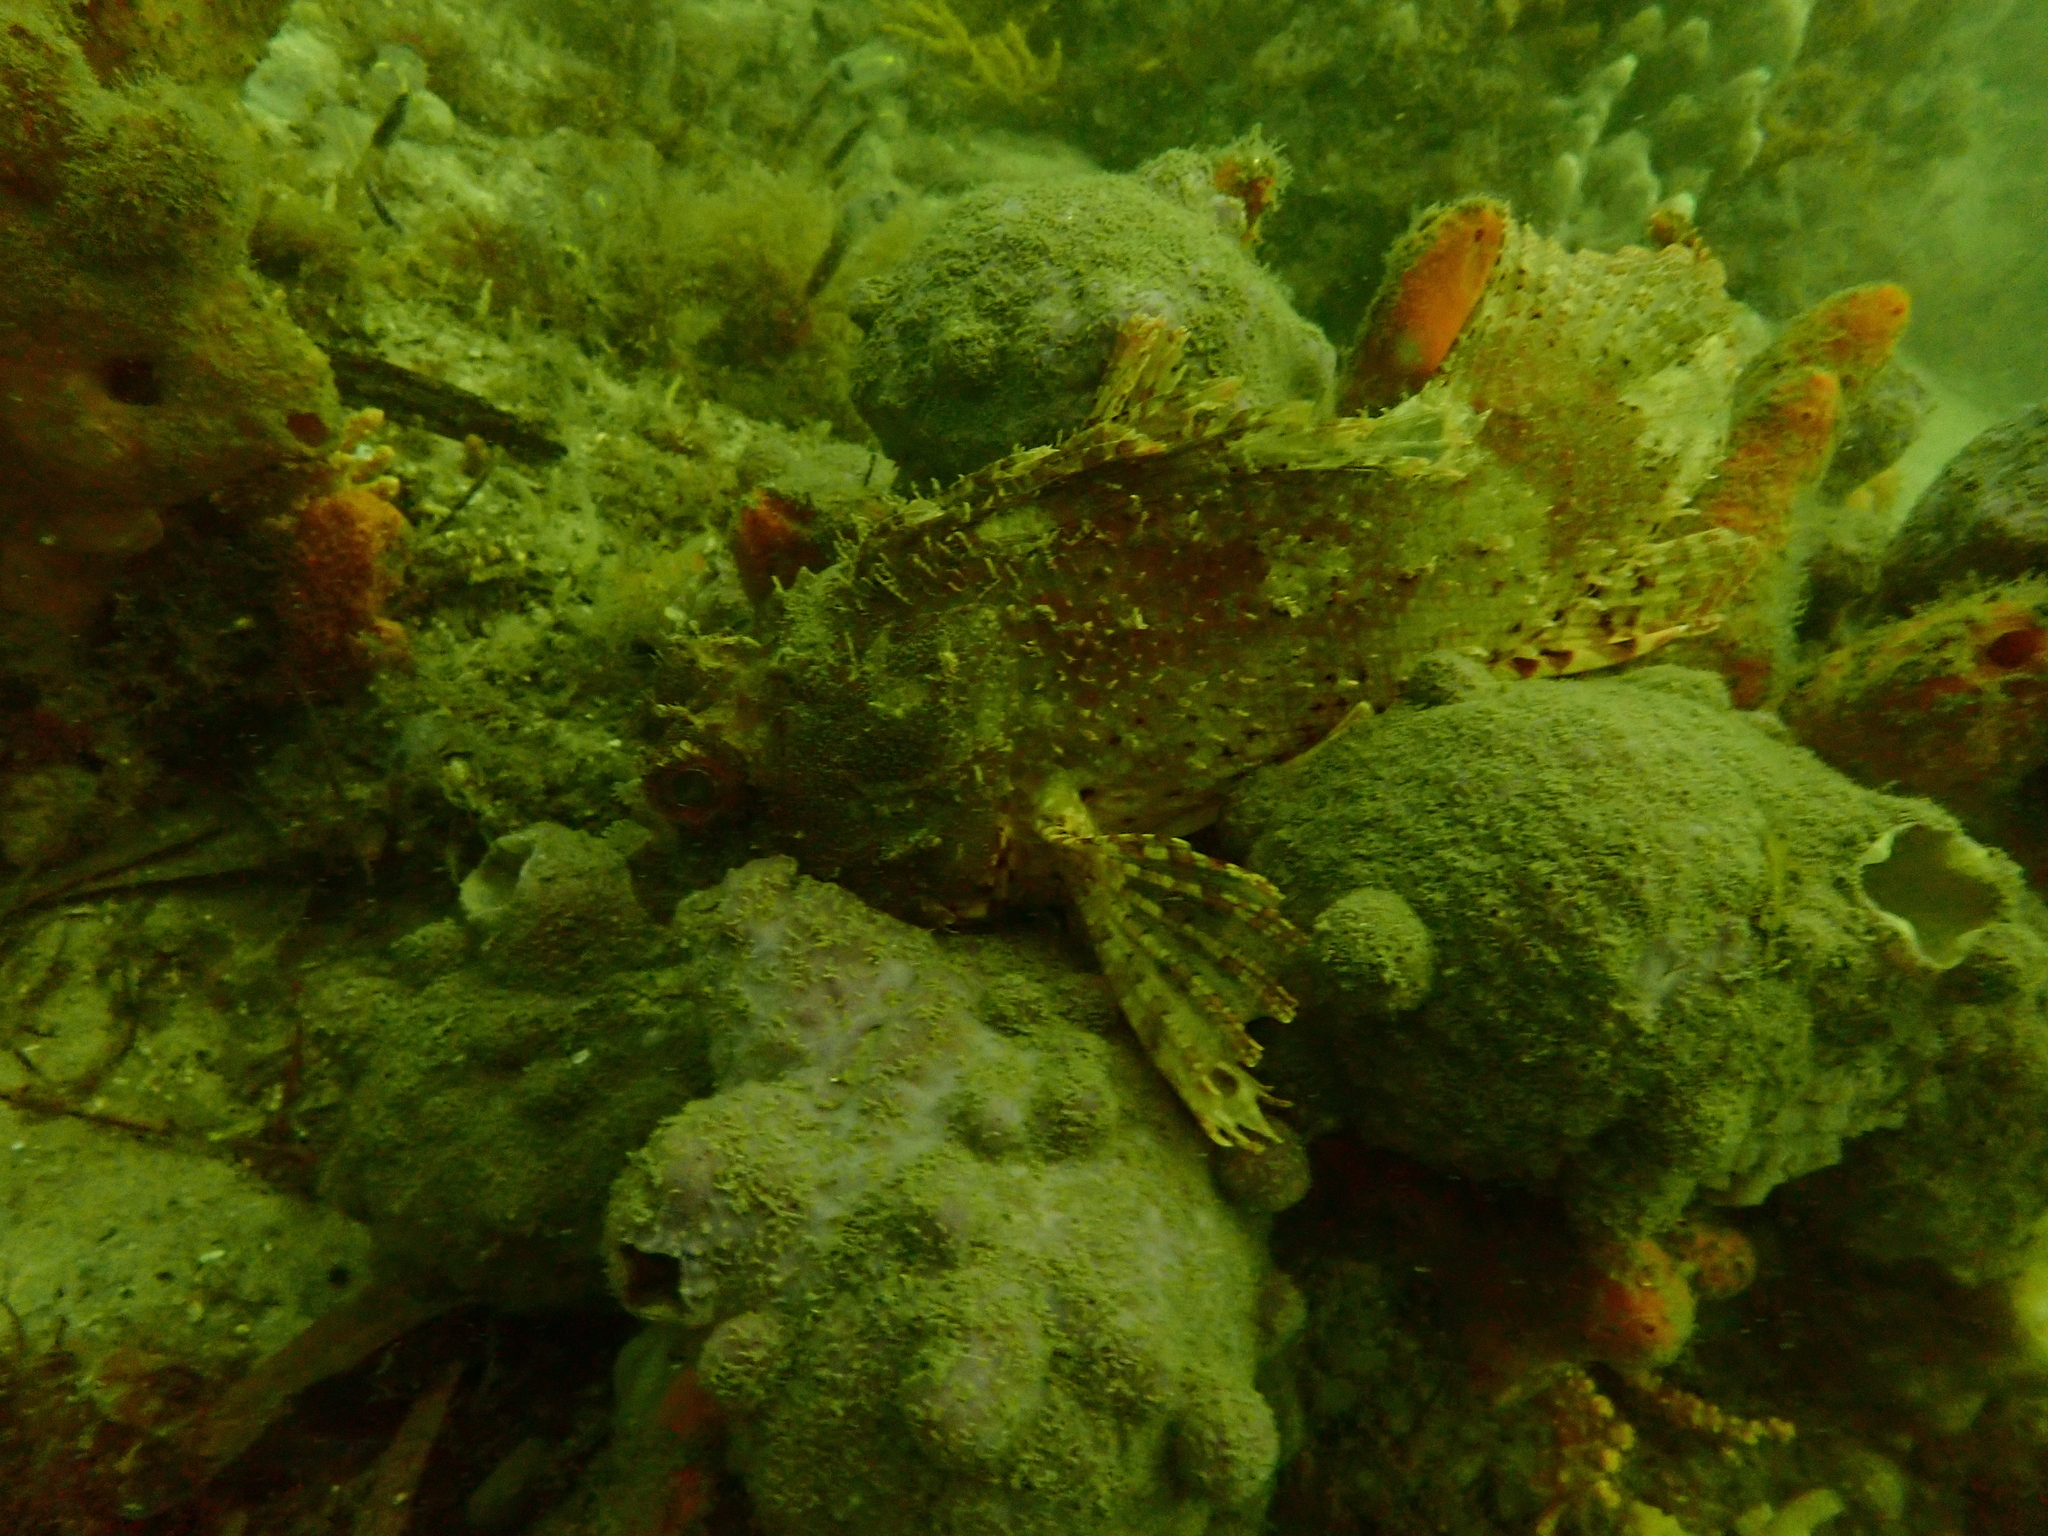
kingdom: Animalia
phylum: Chordata
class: Ascidiacea
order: Stolidobranchia
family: Pyuridae
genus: Pyura
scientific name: Pyura spinifera
